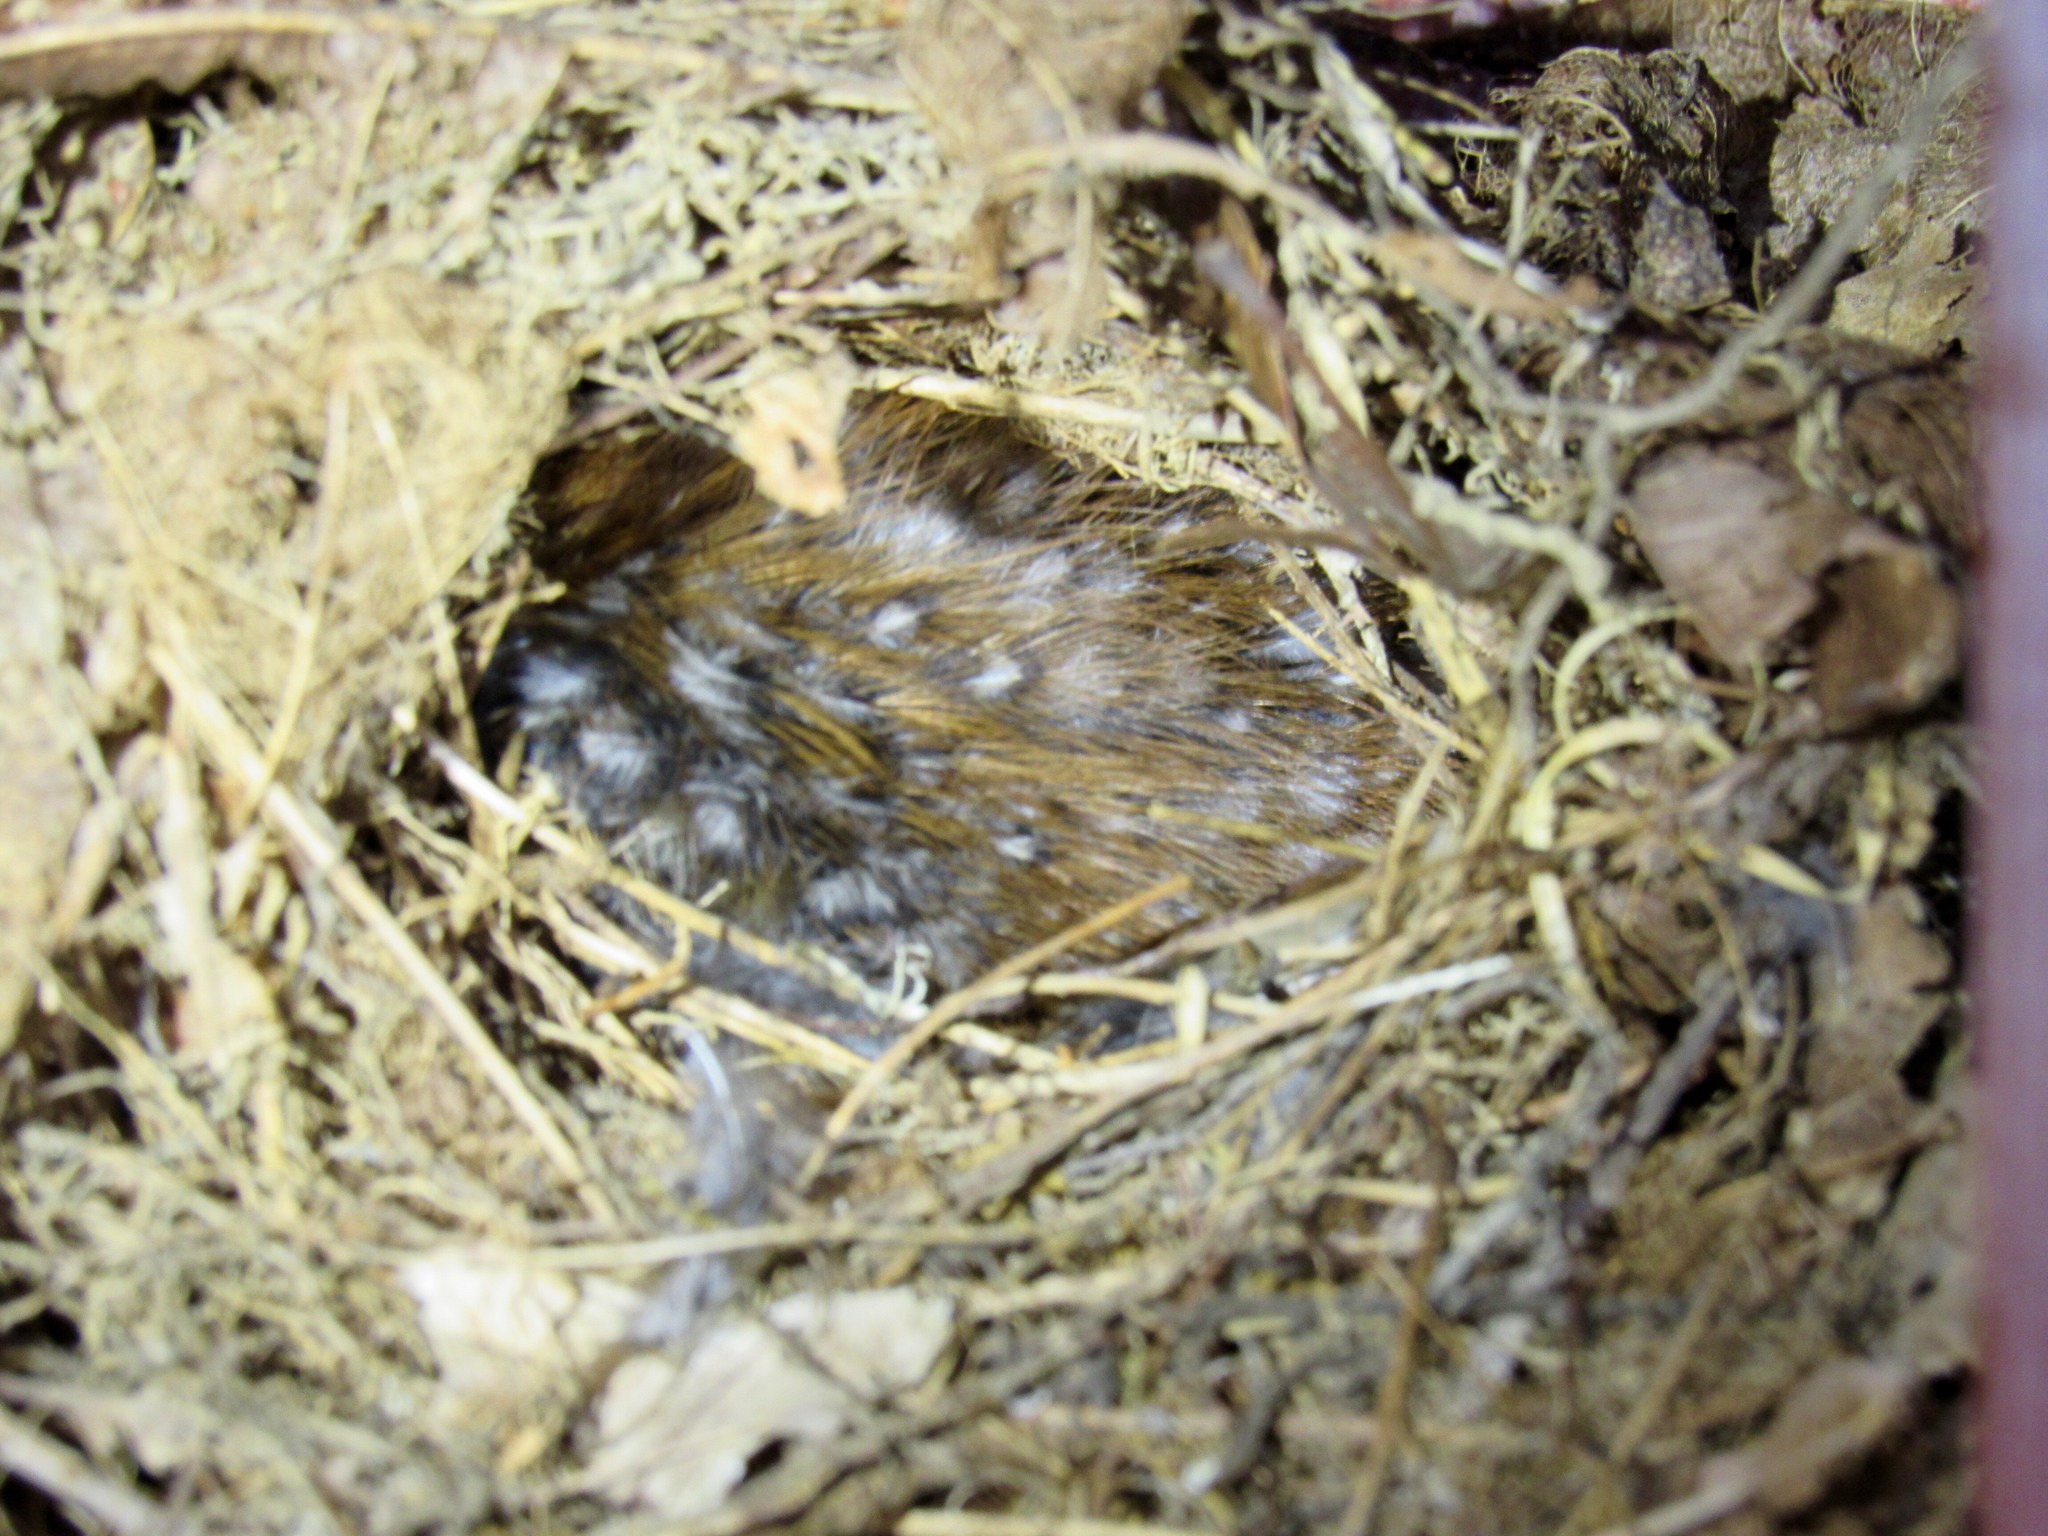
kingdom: Animalia
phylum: Chordata
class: Aves
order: Passeriformes
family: Troglodytidae
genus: Thryothorus
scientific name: Thryothorus ludovicianus
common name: Carolina wren
